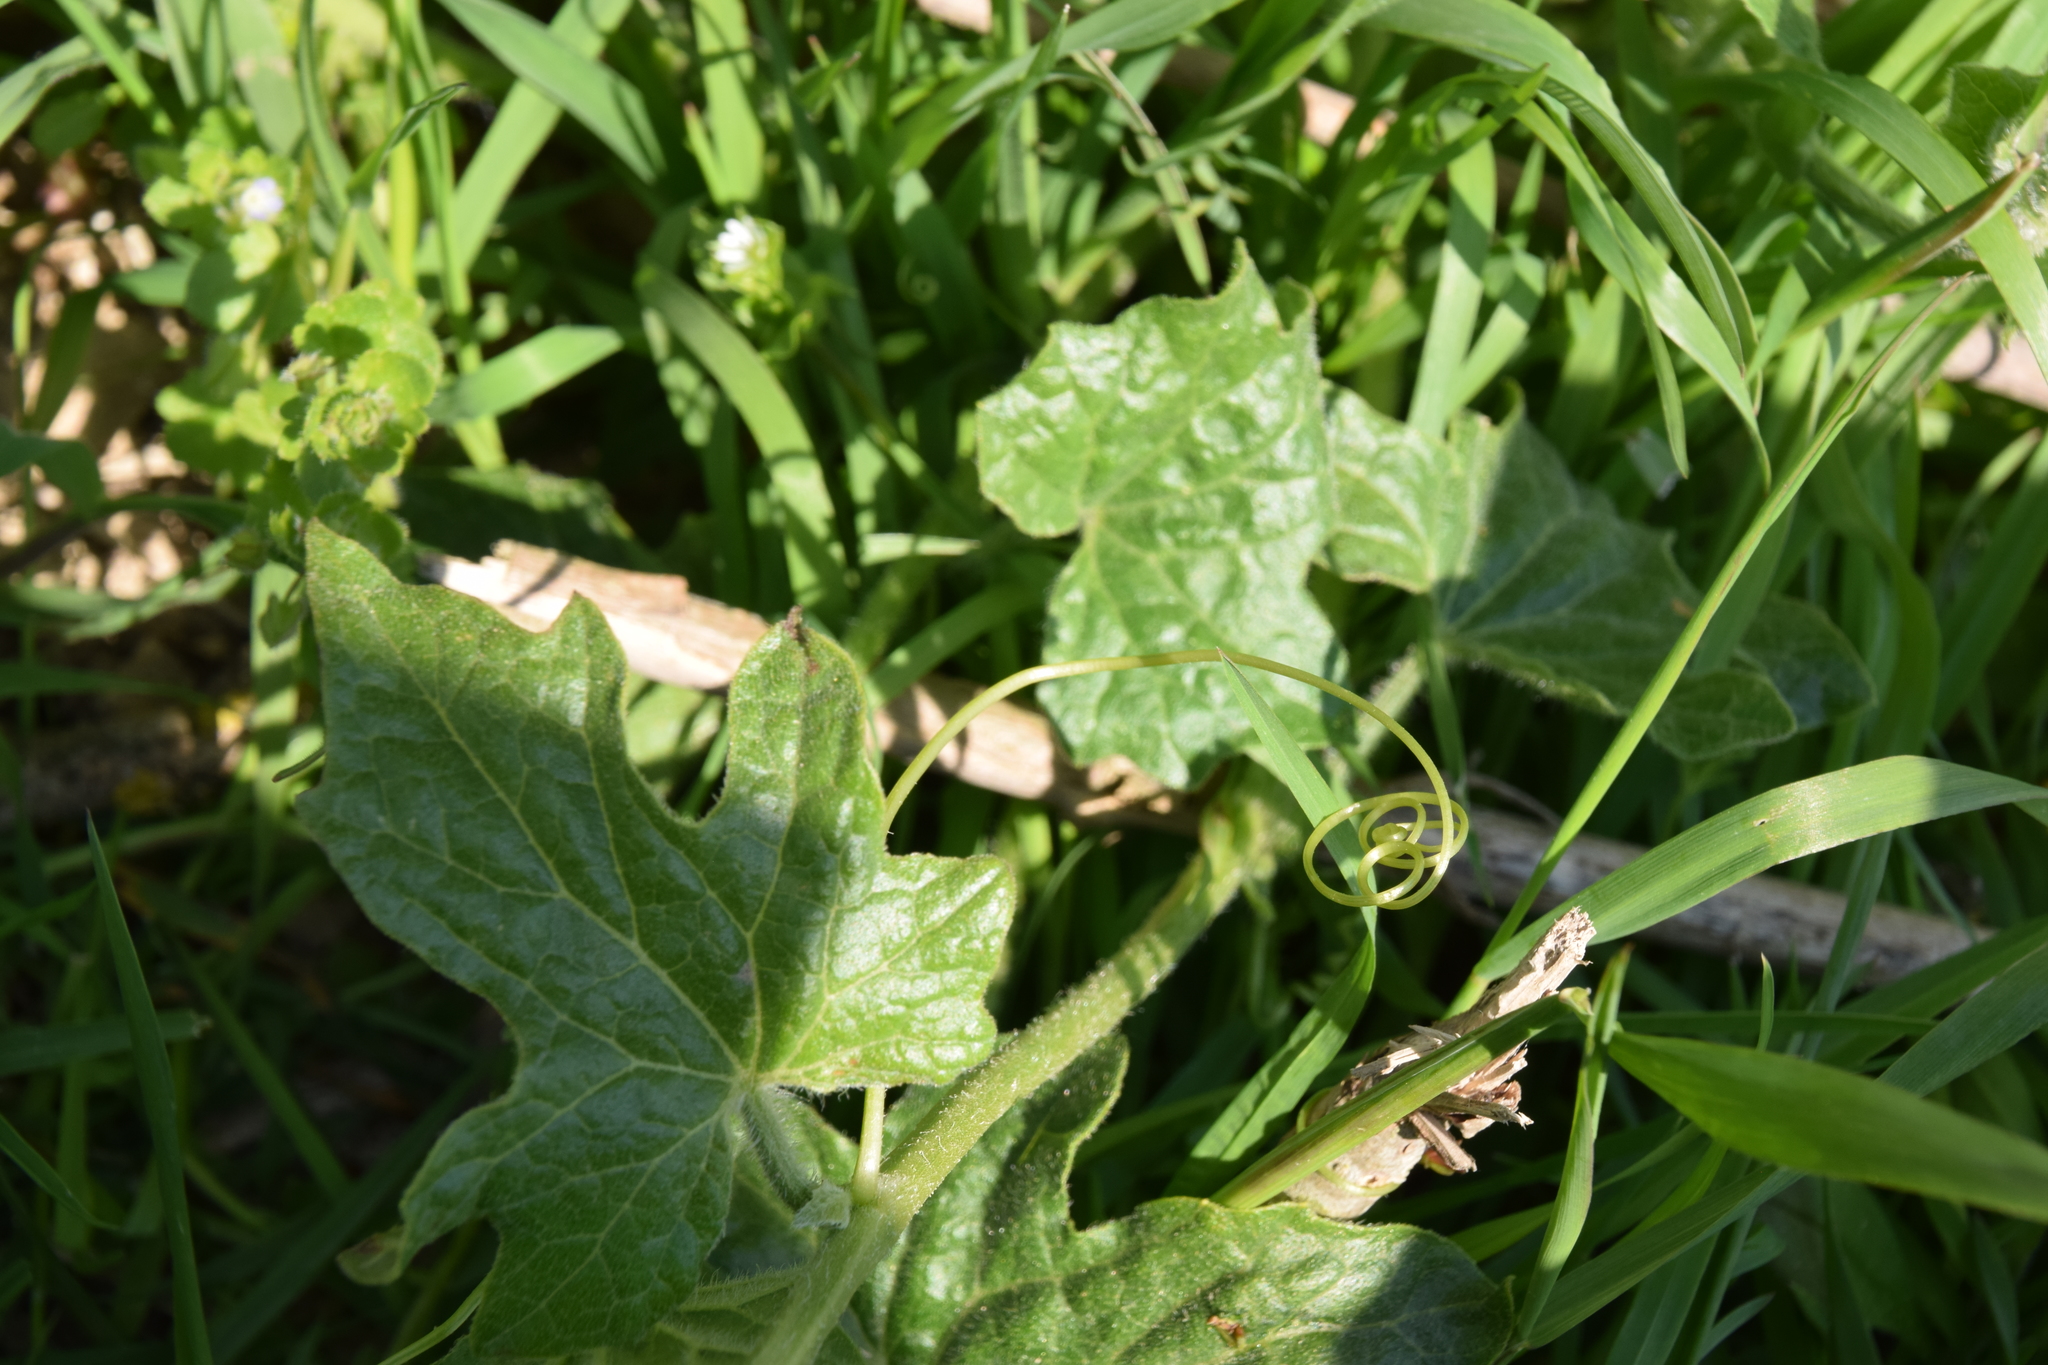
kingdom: Plantae
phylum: Tracheophyta
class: Magnoliopsida
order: Cucurbitales
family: Cucurbitaceae
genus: Bryonia
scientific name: Bryonia cretica
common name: Cretan bryony
